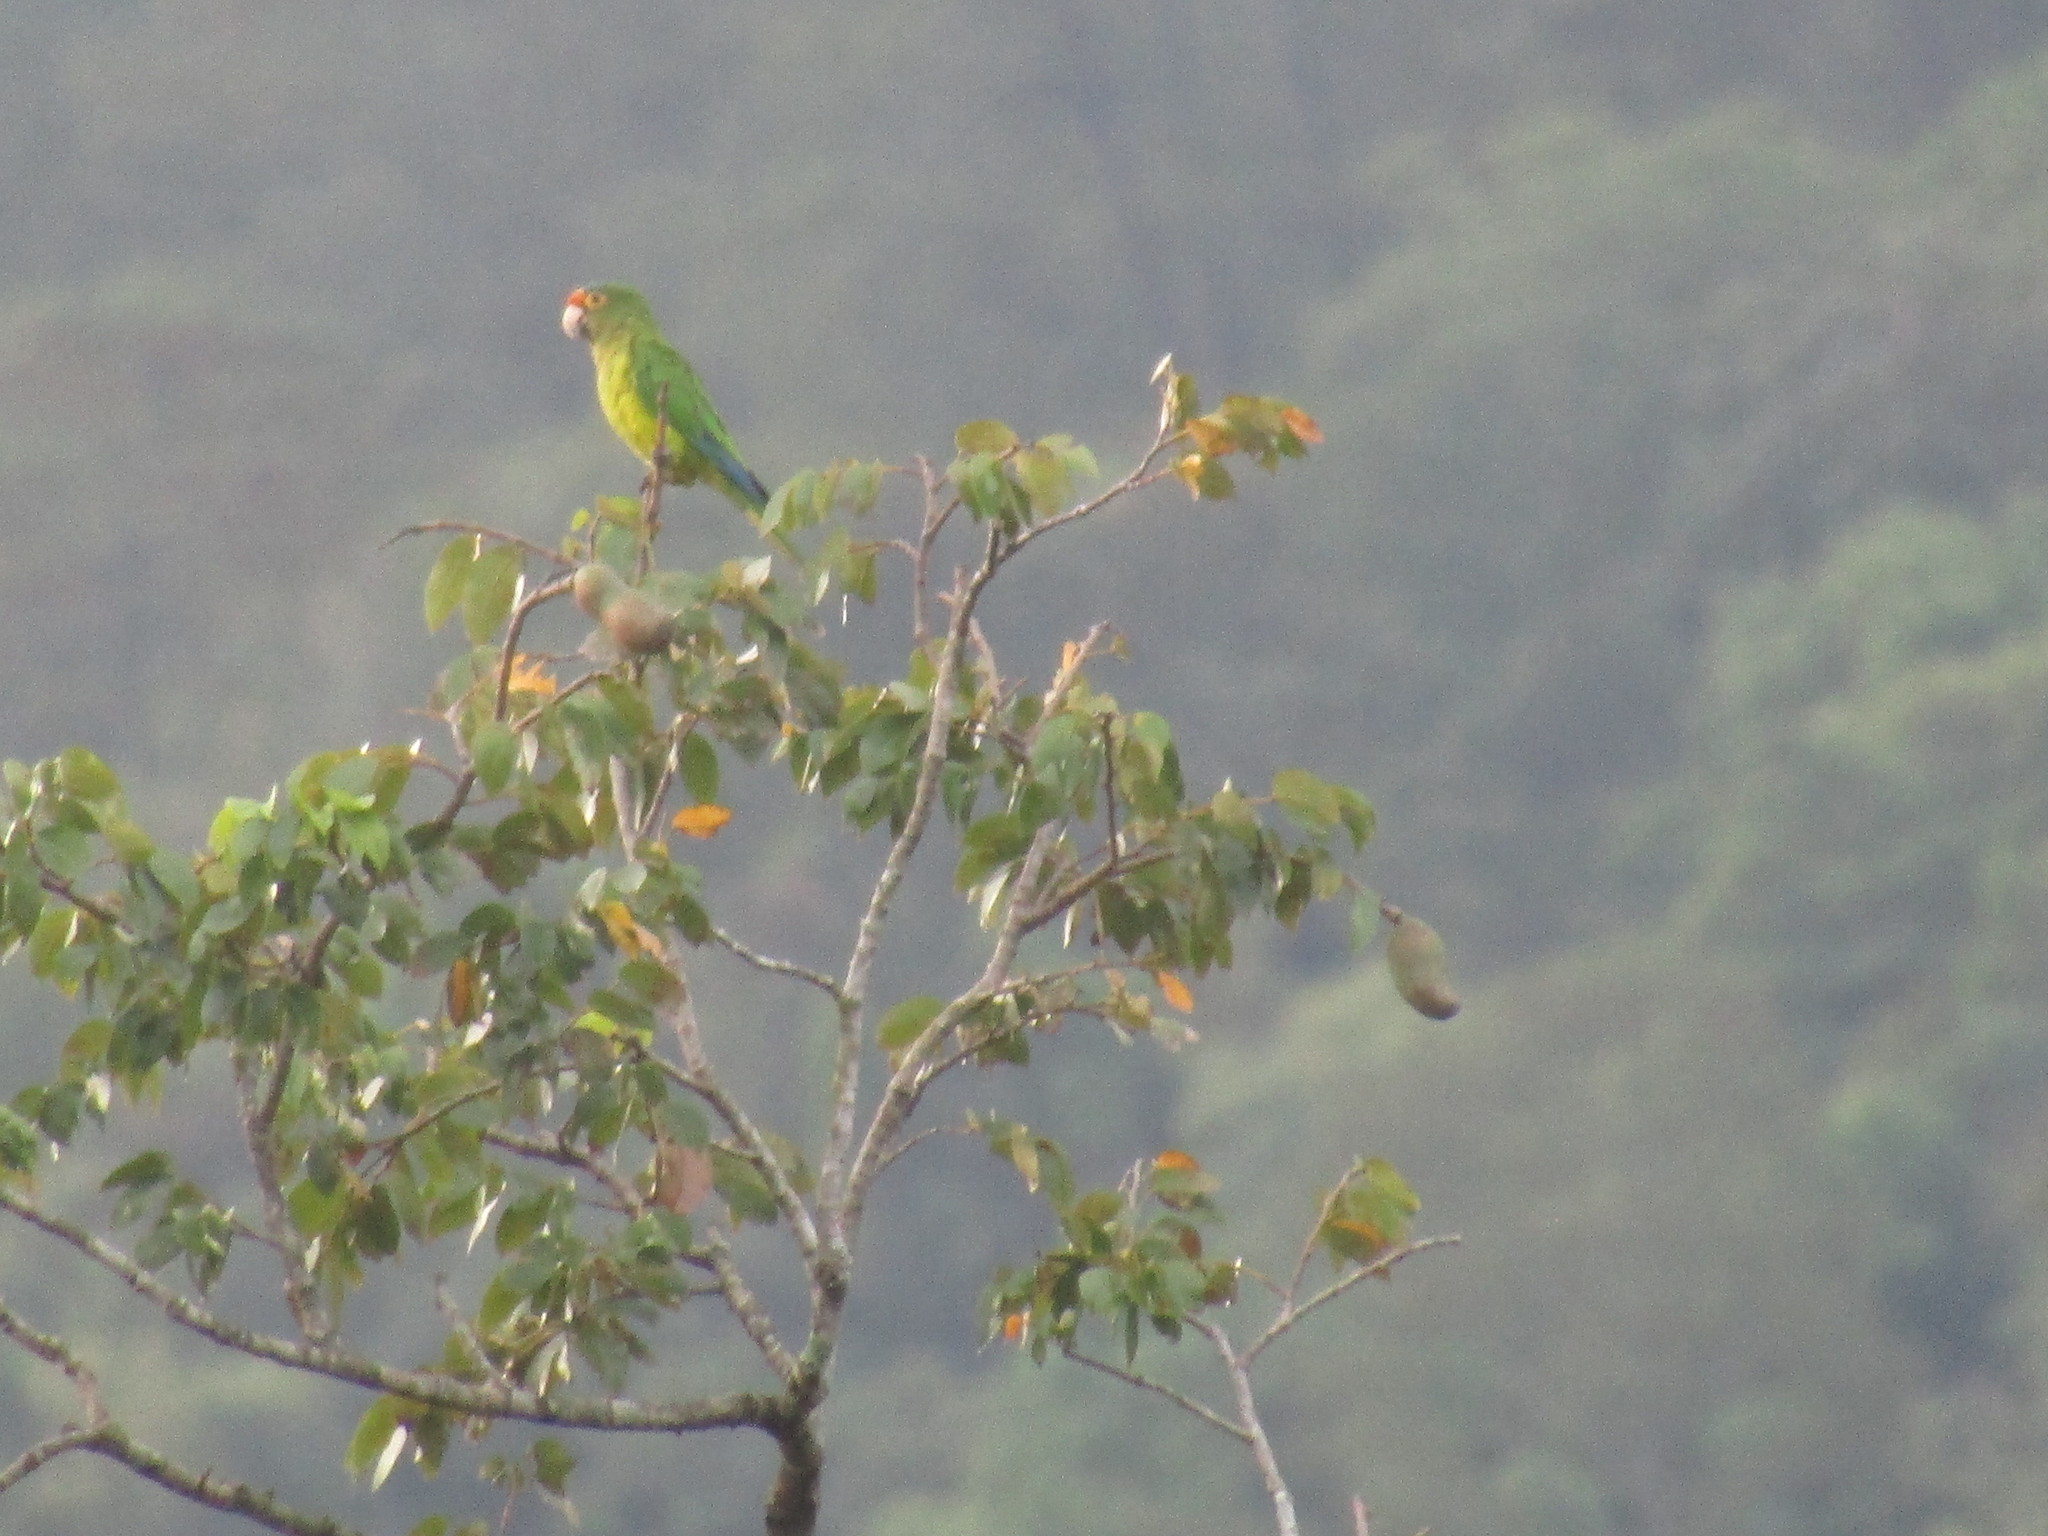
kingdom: Animalia
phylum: Chordata
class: Aves
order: Psittaciformes
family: Psittacidae
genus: Aratinga
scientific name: Aratinga canicularis
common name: Orange-fronted parakeet
